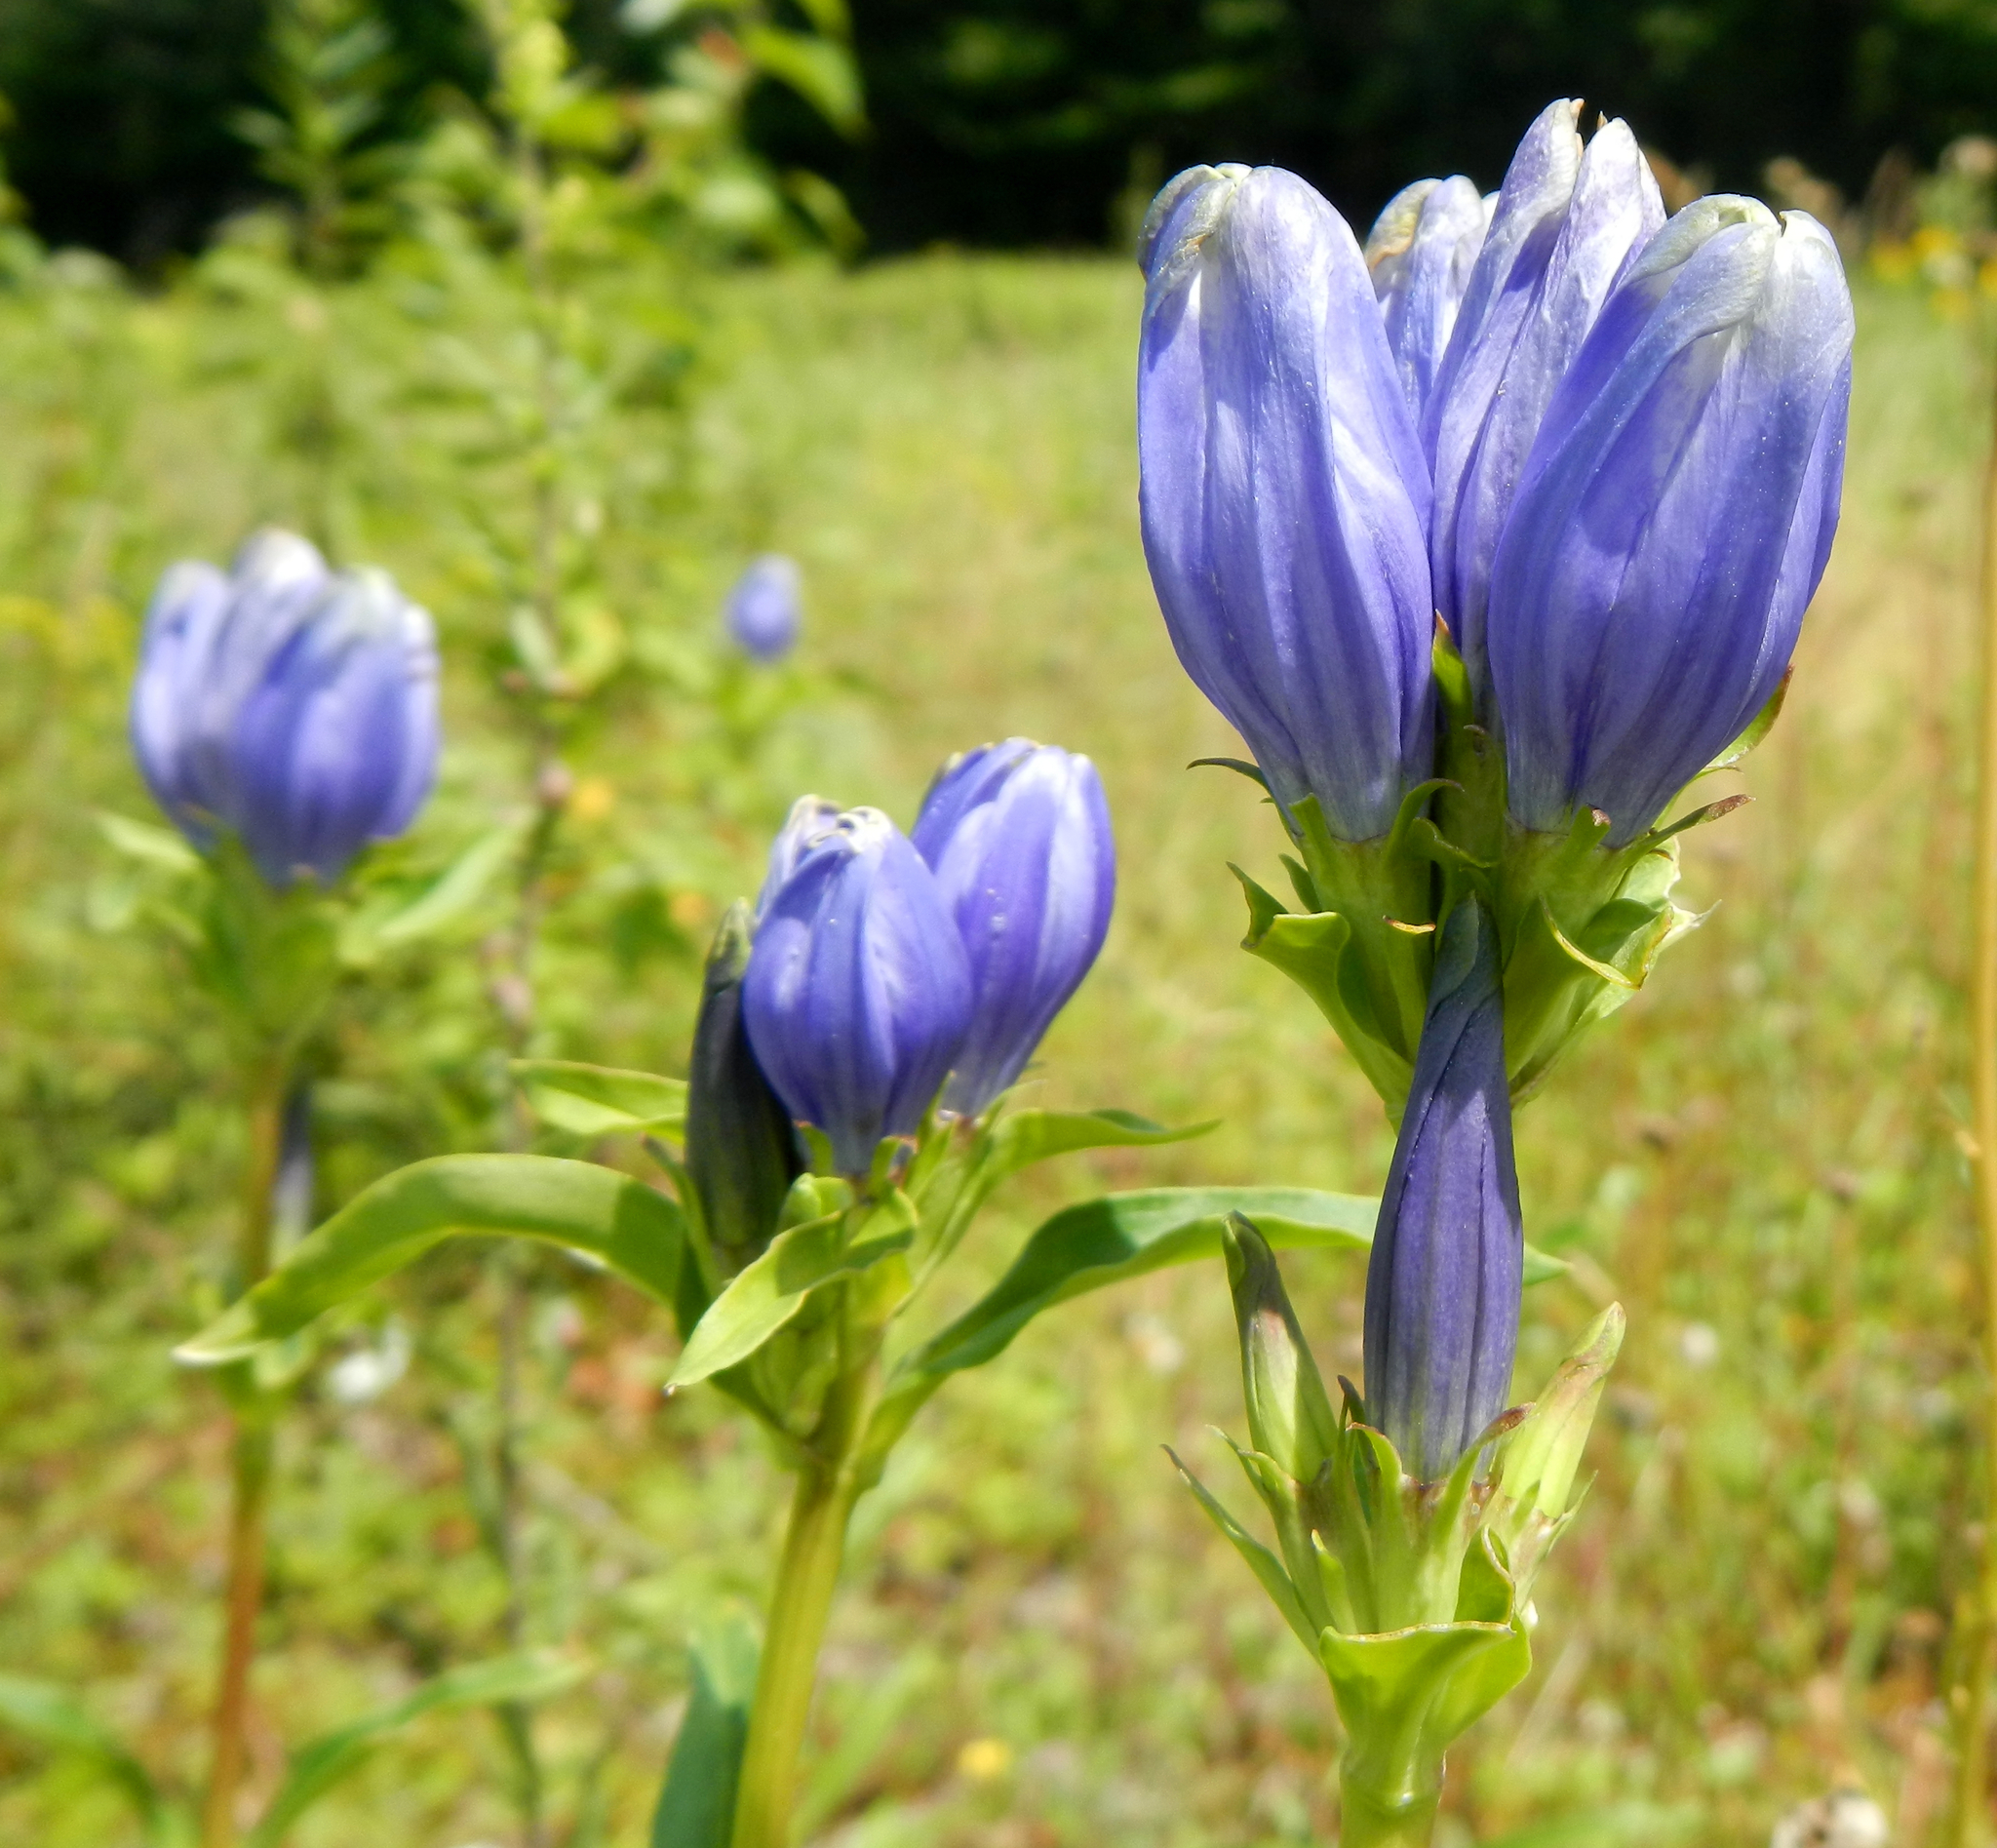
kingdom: Plantae
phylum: Tracheophyta
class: Magnoliopsida
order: Gentianales
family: Gentianaceae
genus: Gentiana
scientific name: Gentiana linearis
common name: Bastard gentian
